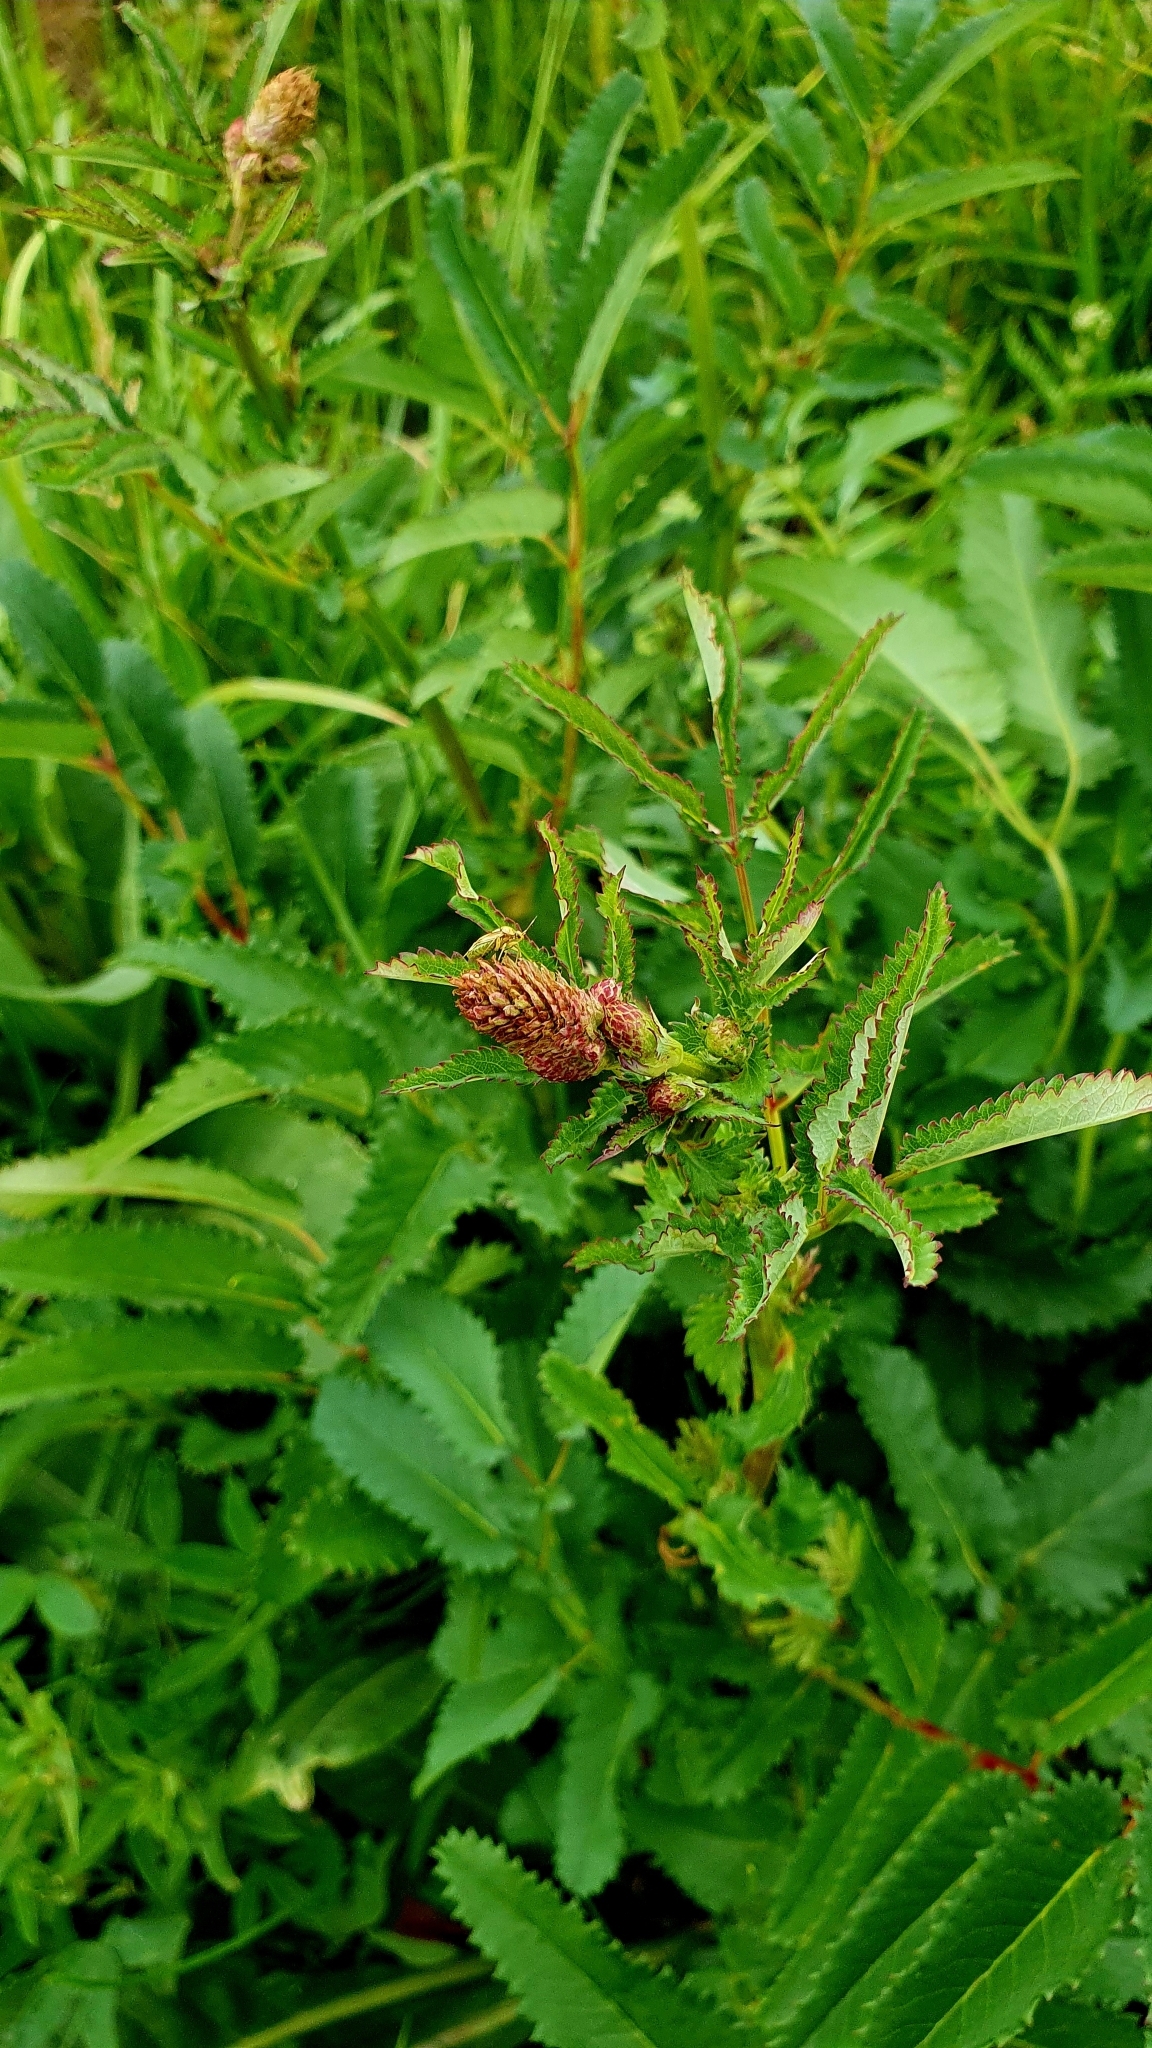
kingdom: Plantae
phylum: Tracheophyta
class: Magnoliopsida
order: Rosales
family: Rosaceae
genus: Sanguisorba
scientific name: Sanguisorba officinalis
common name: Great burnet
